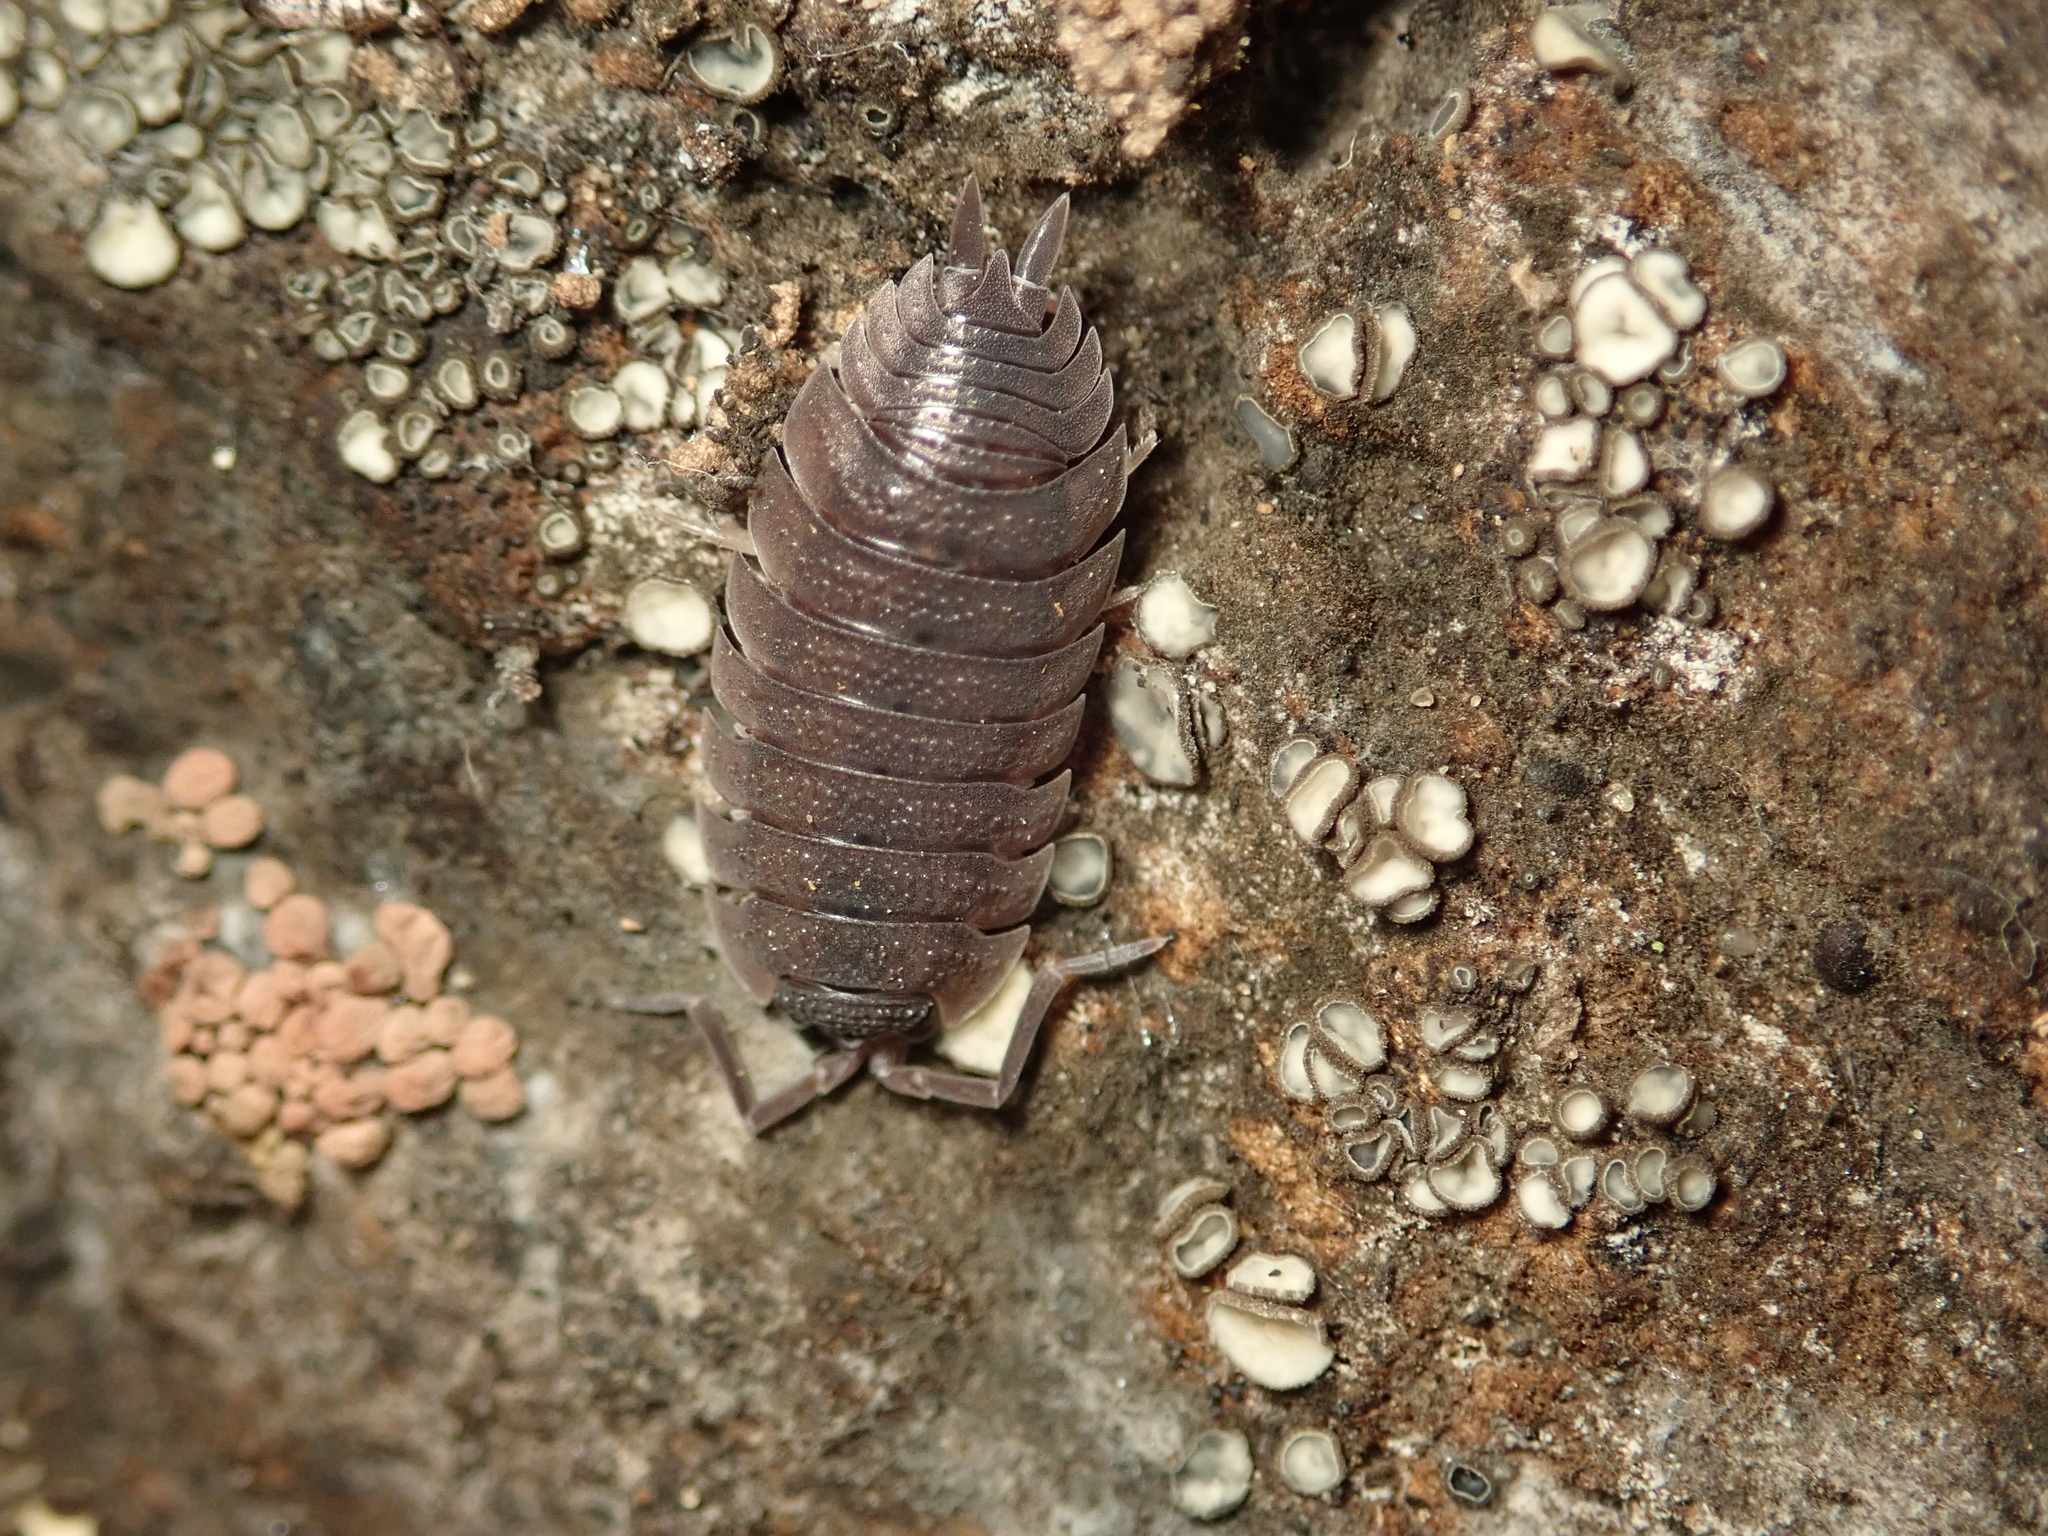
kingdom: Animalia
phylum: Arthropoda
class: Malacostraca
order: Isopoda
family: Porcellionidae
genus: Porcellio
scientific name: Porcellio scaber
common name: Common rough woodlouse
